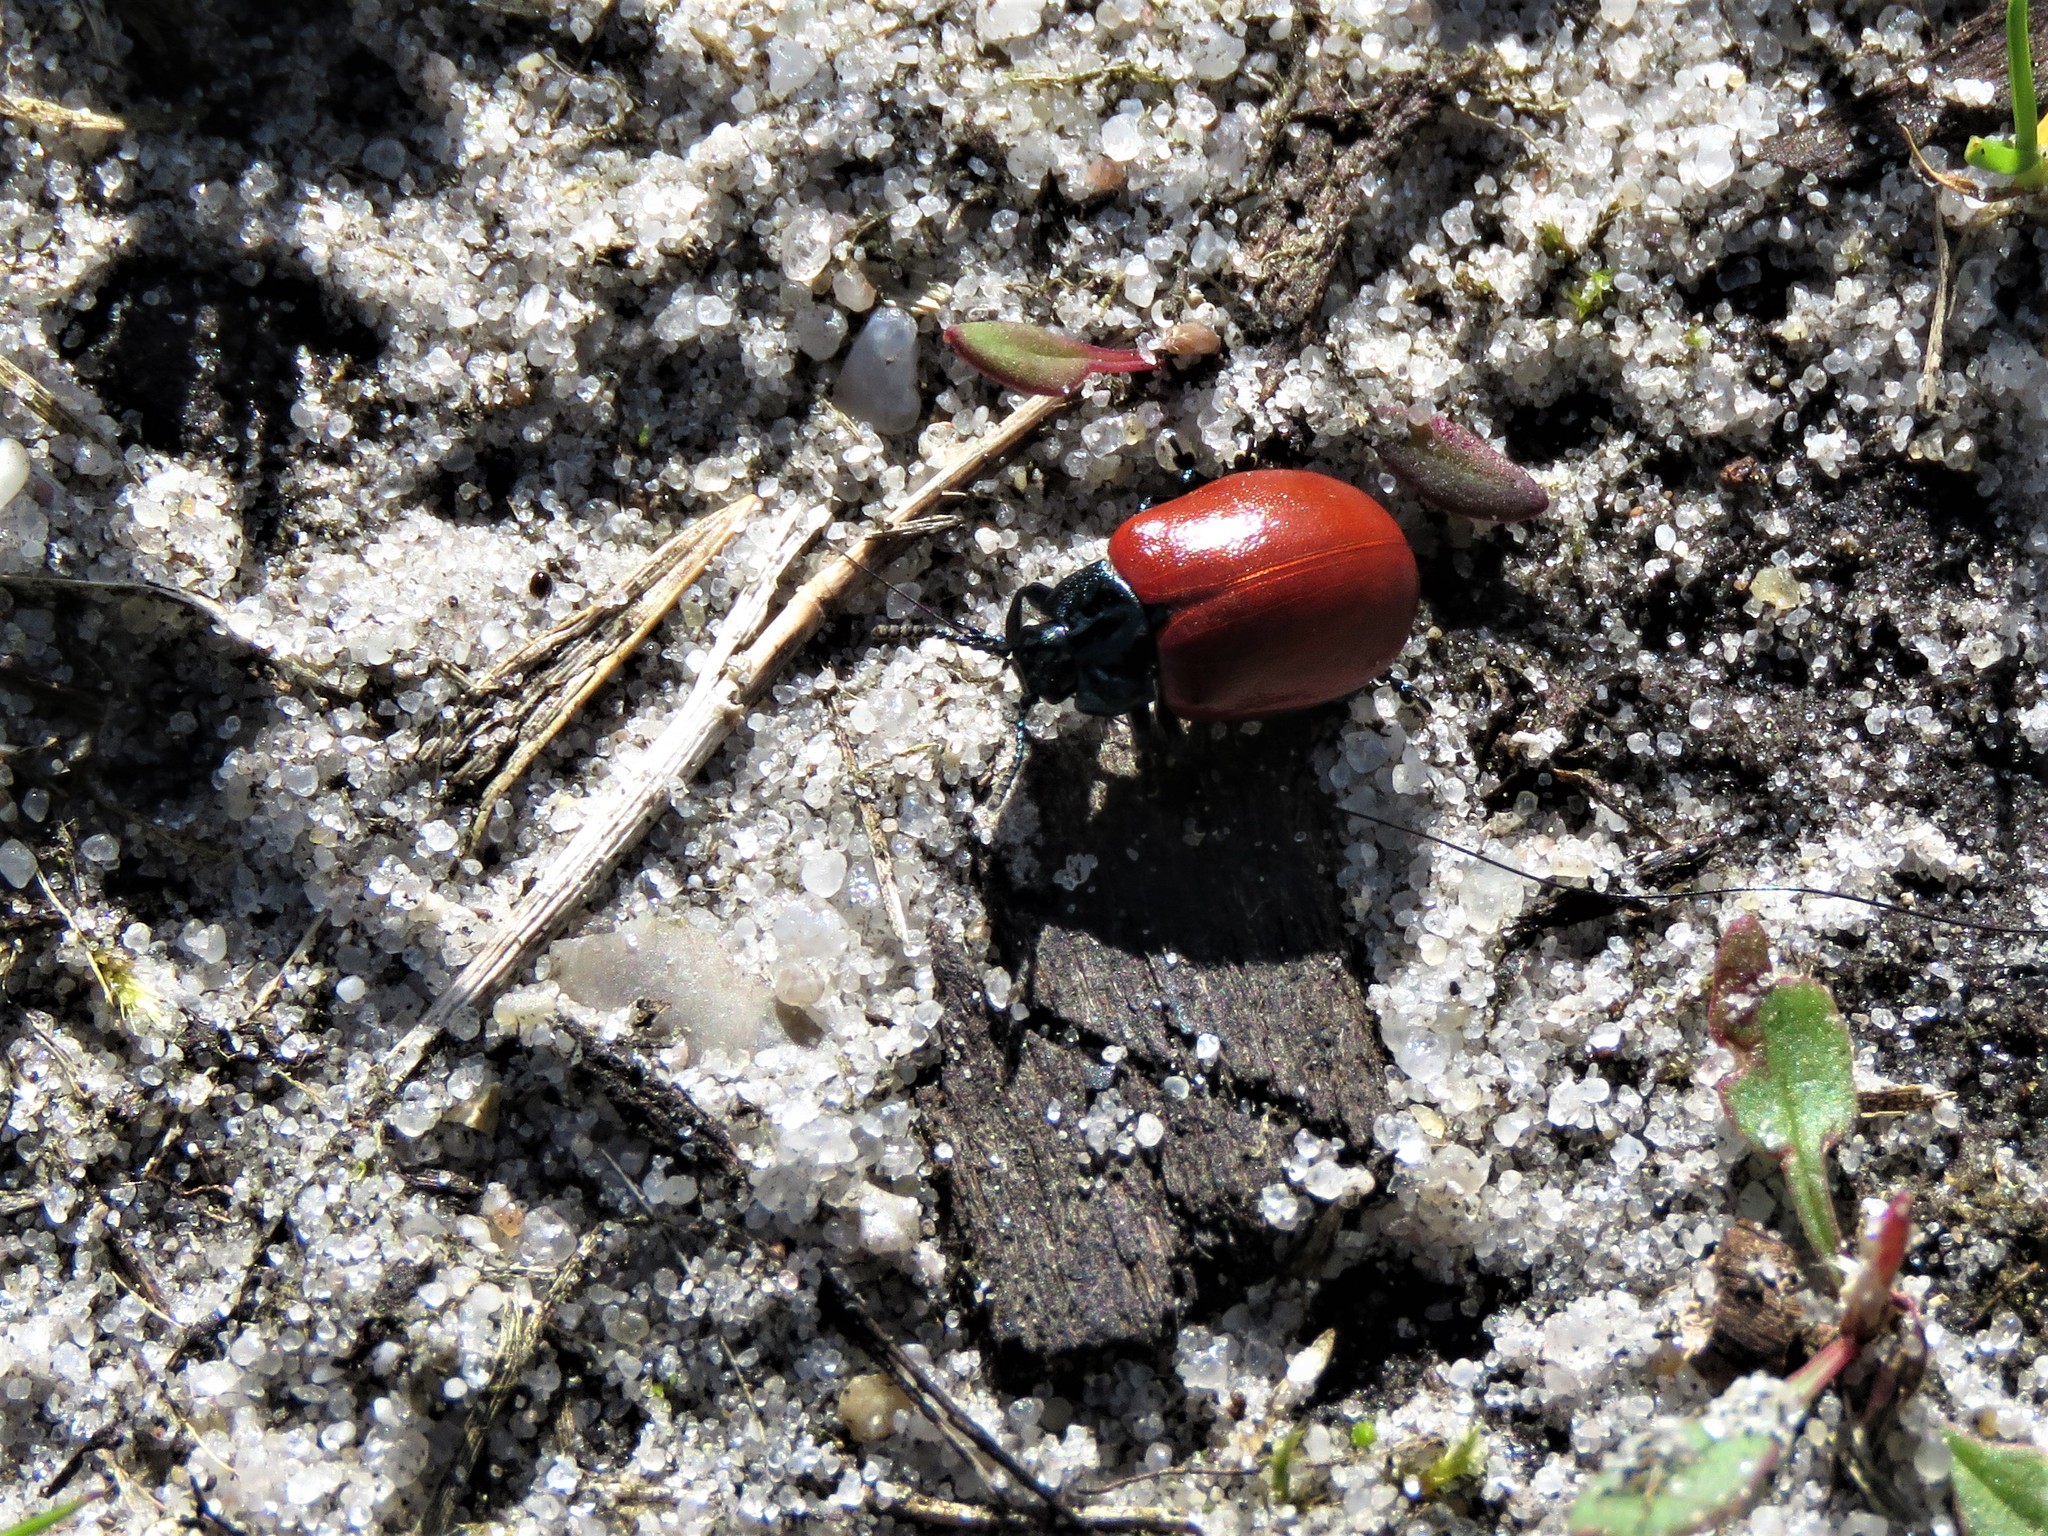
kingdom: Animalia
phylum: Arthropoda
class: Insecta
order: Coleoptera
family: Chrysomelidae
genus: Chrysomela
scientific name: Chrysomela populi
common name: Red poplar leaf beetle
